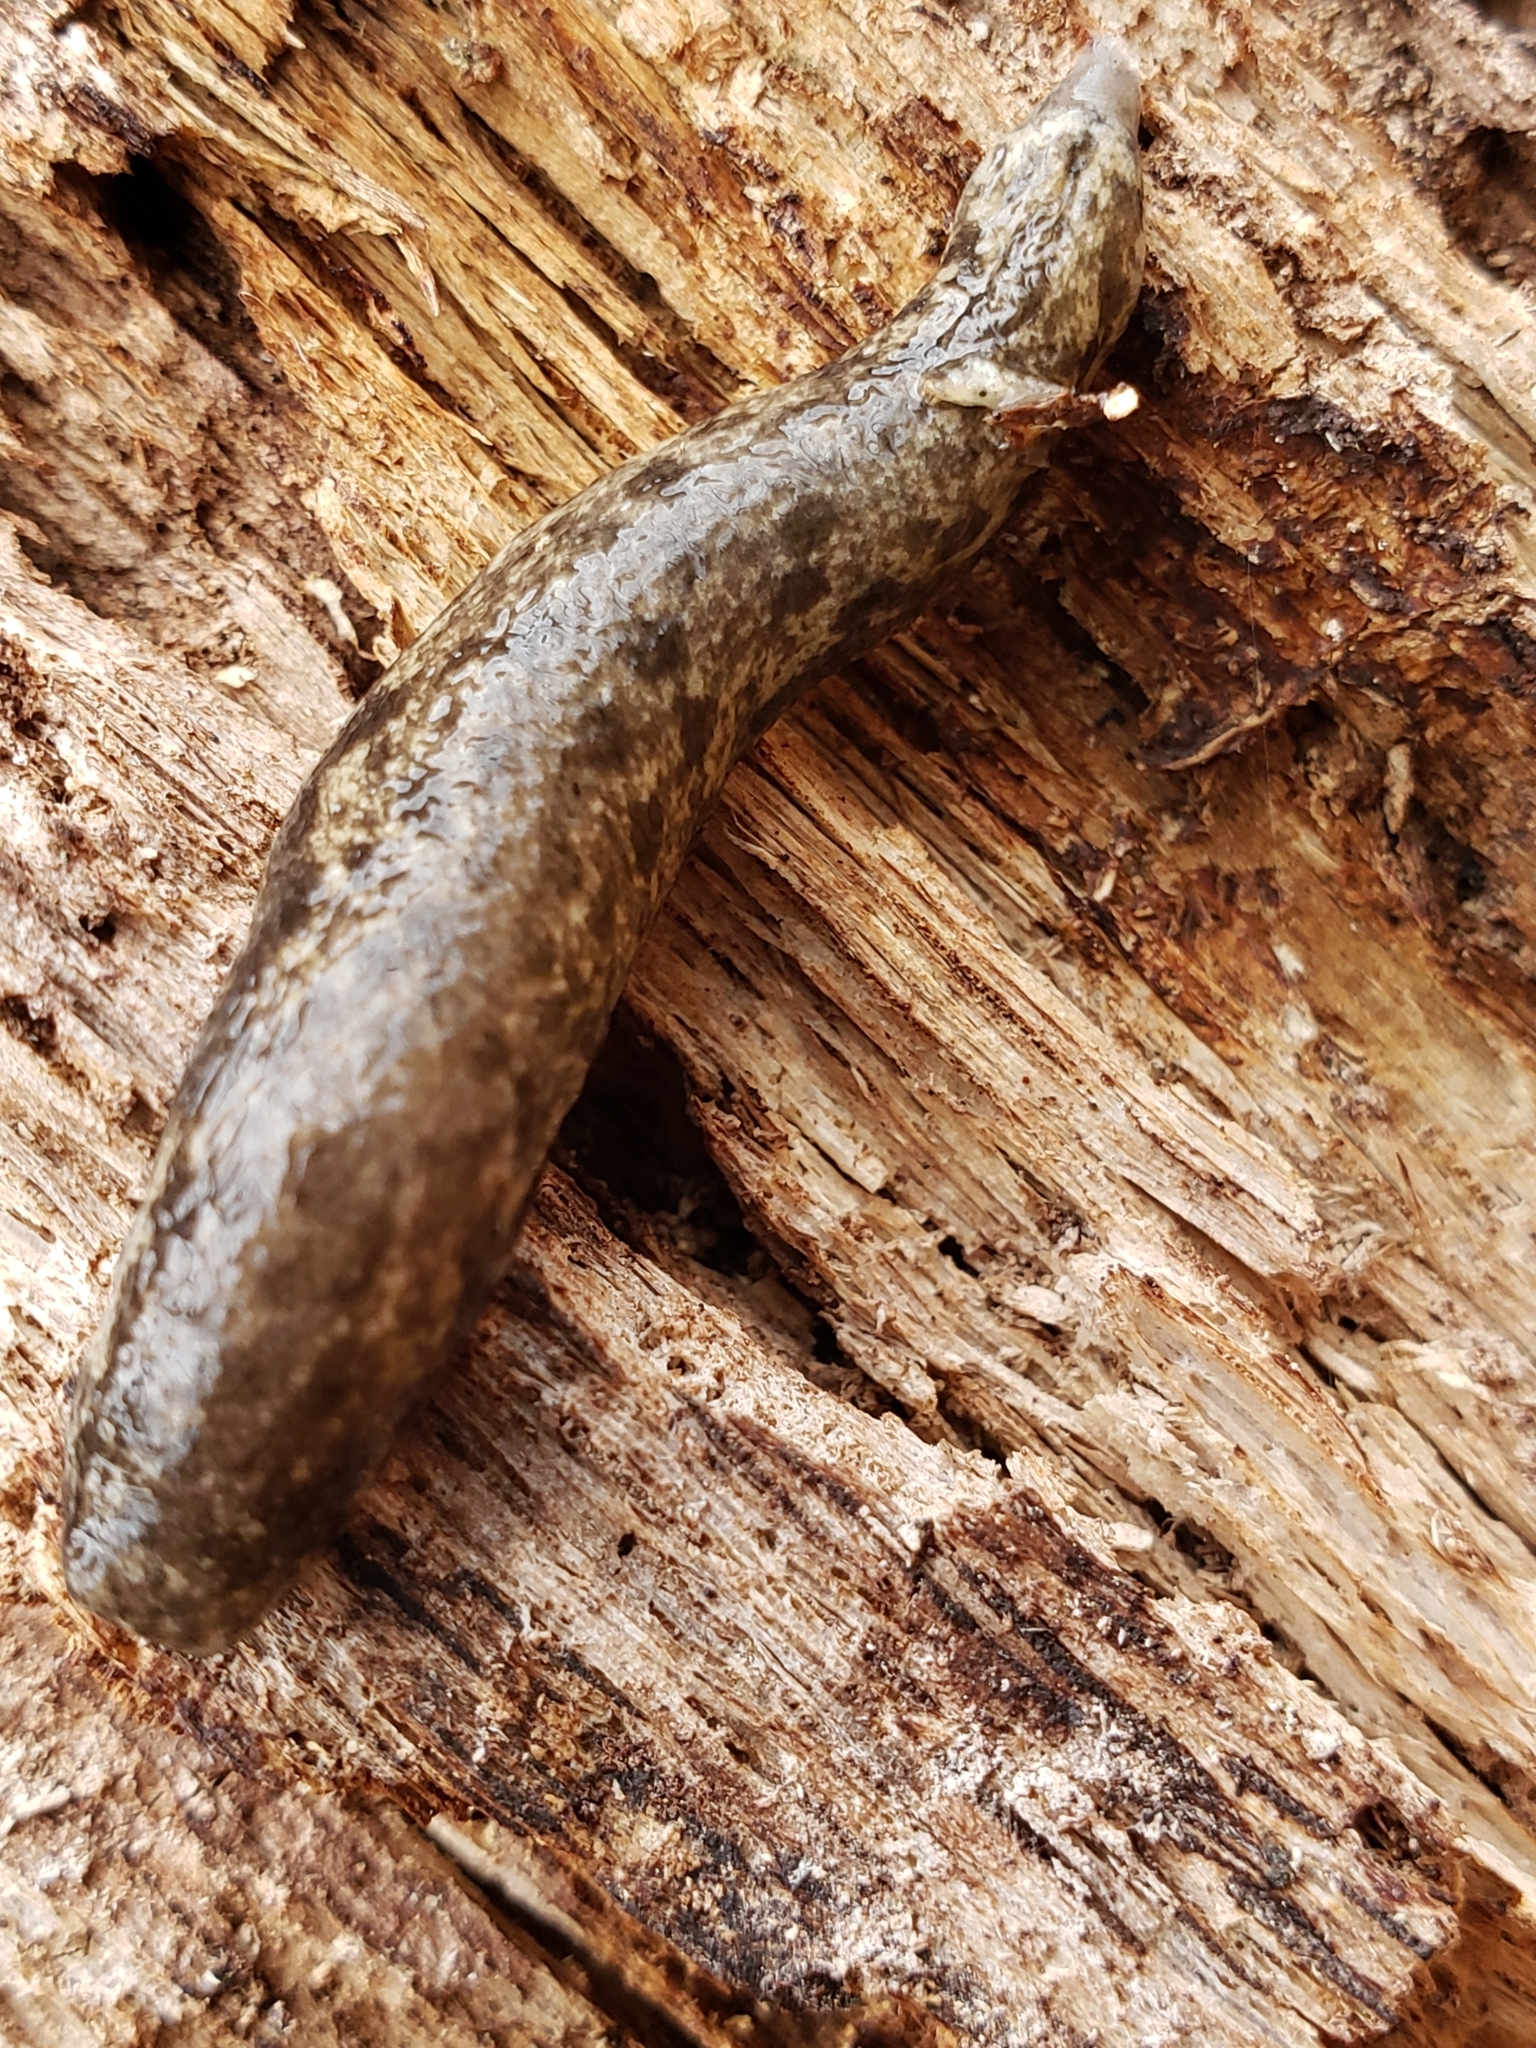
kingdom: Animalia
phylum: Mollusca
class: Gastropoda
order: Stylommatophora
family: Philomycidae
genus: Megapallifera
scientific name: Megapallifera mutabilis
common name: Changeable mantleslug
